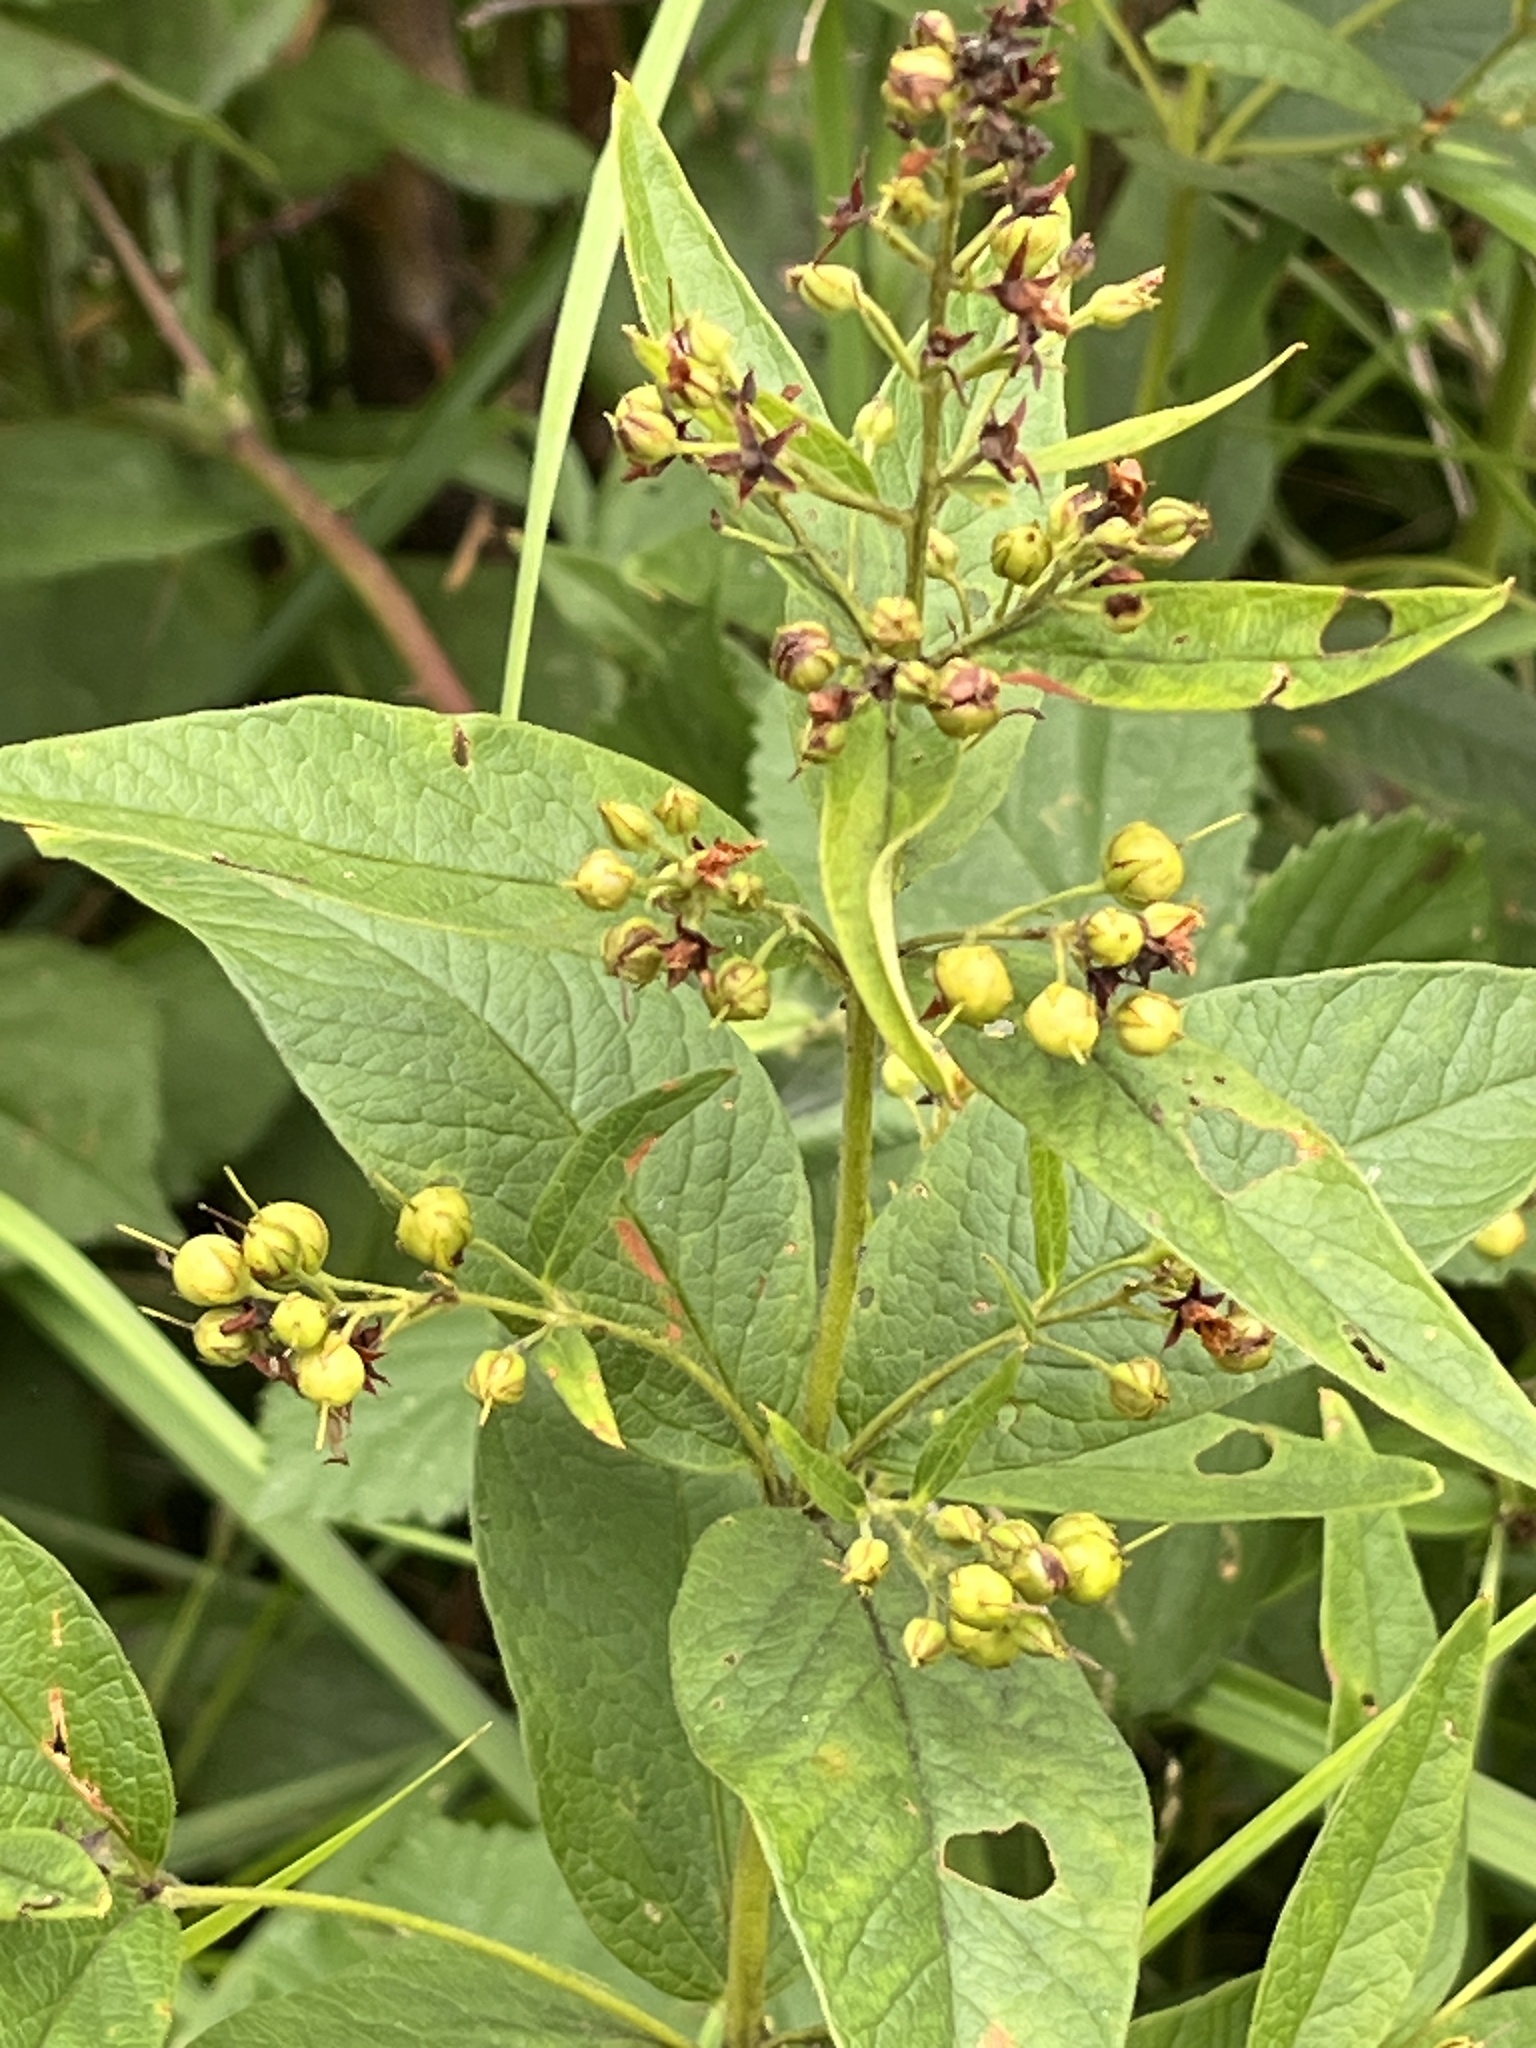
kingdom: Plantae
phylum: Tracheophyta
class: Magnoliopsida
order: Ericales
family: Primulaceae
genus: Lysimachia
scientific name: Lysimachia vulgaris
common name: Yellow loosestrife
